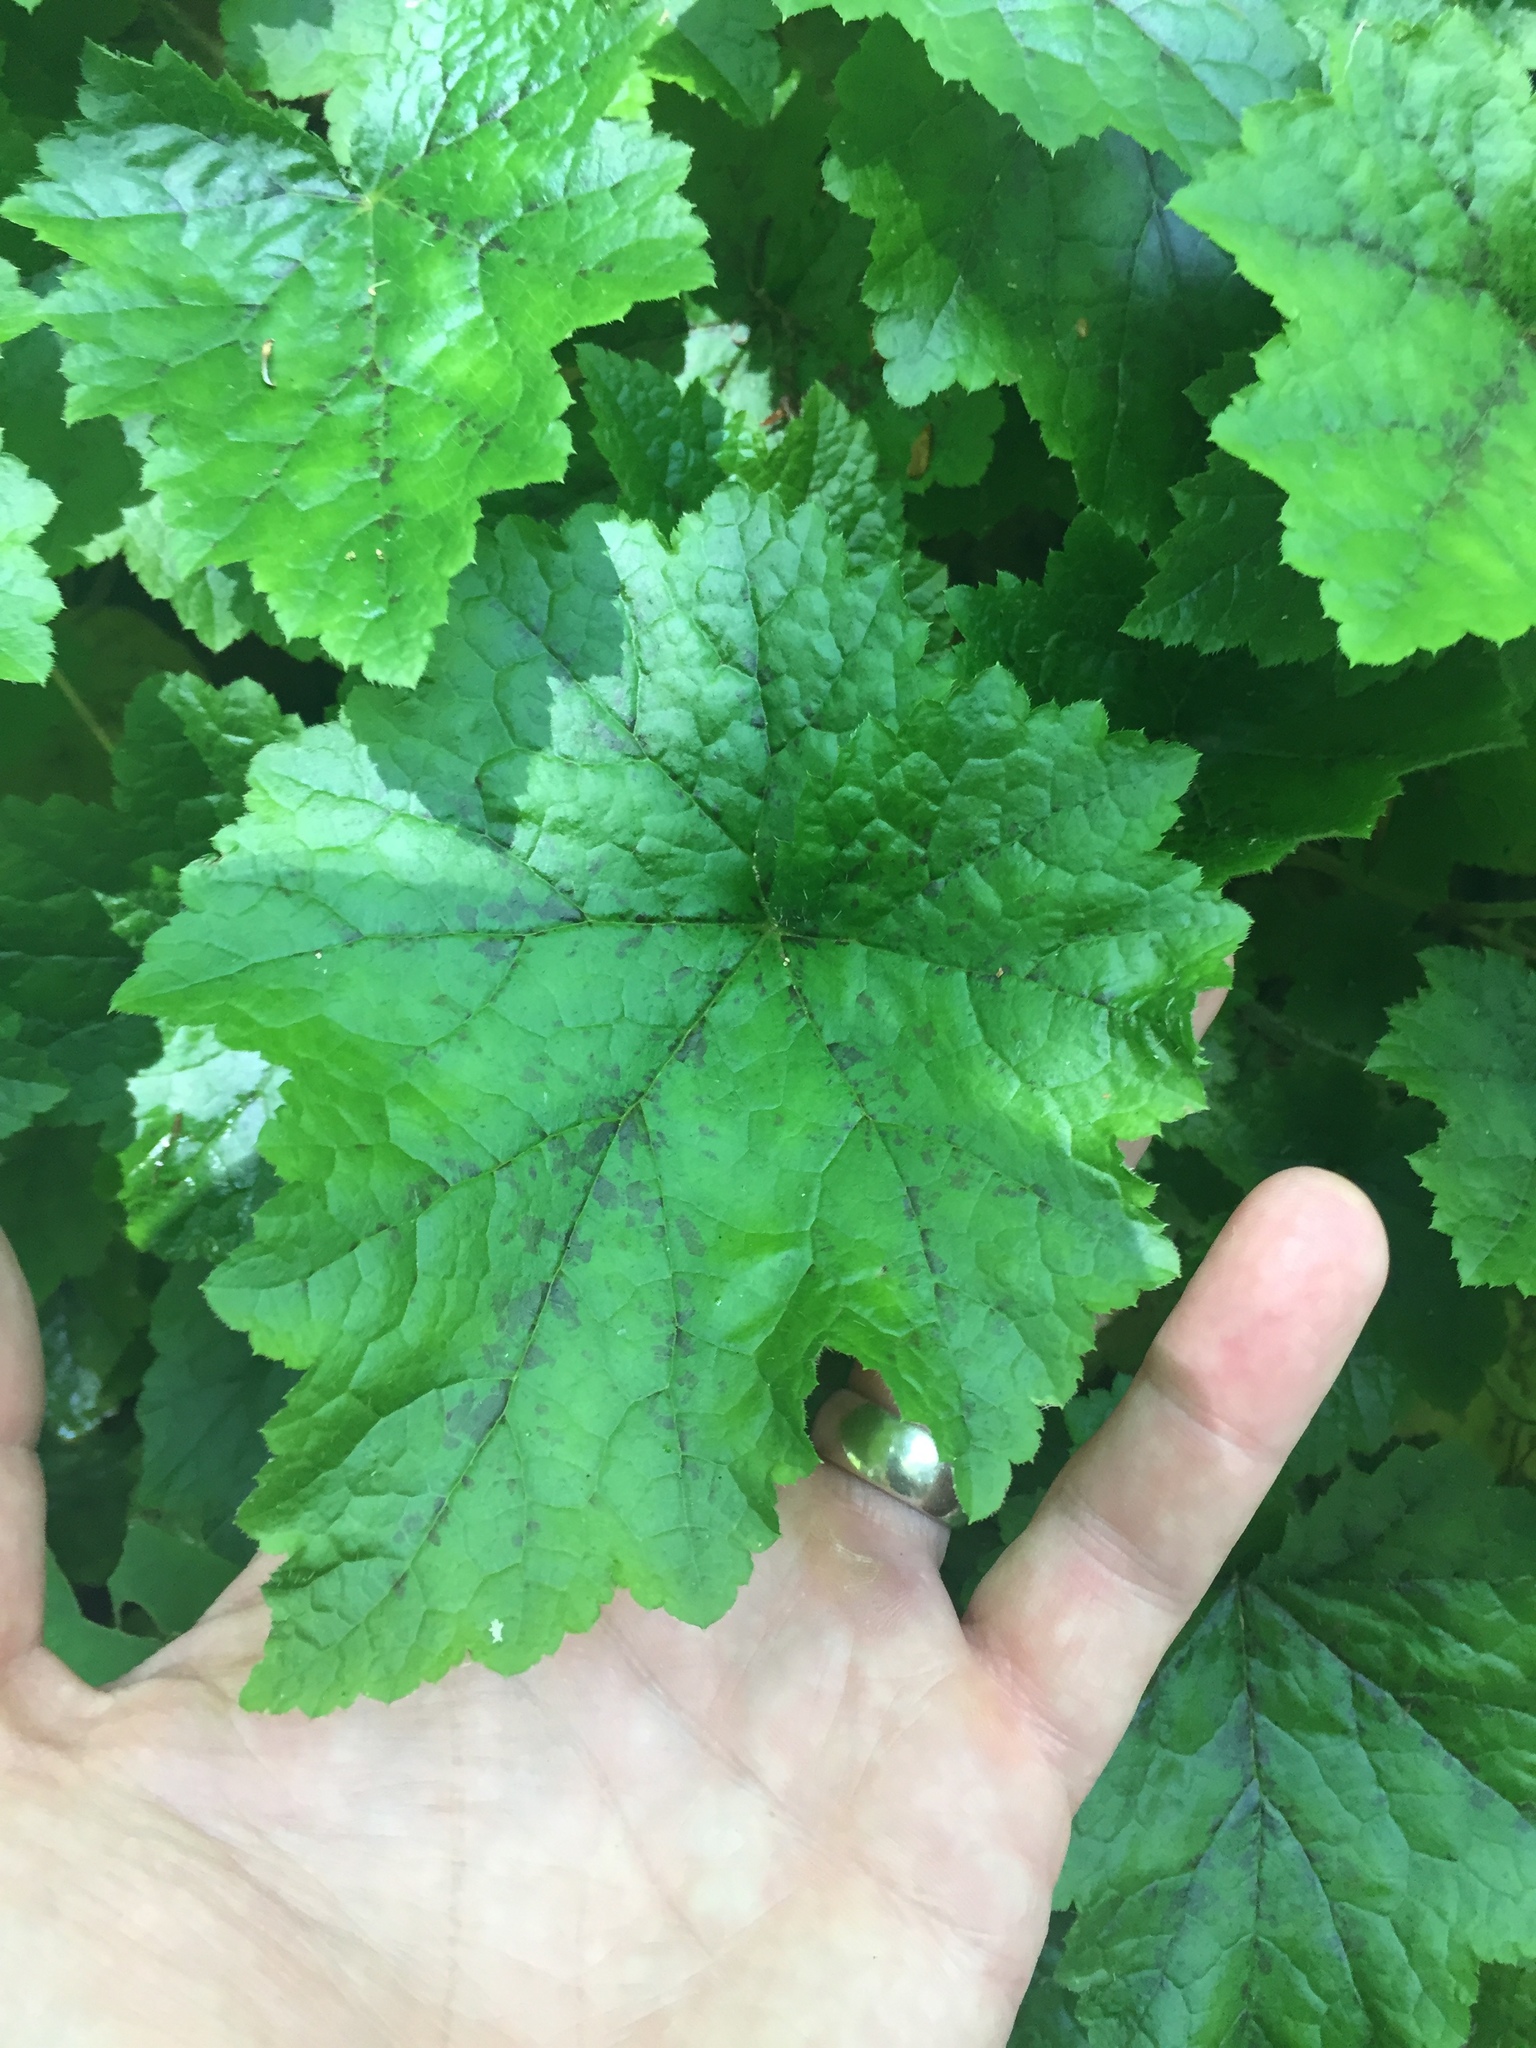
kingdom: Plantae
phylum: Tracheophyta
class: Magnoliopsida
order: Saxifragales
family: Saxifragaceae
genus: Tiarella
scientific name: Tiarella stolonifera
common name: Stoloniferous foamflower
